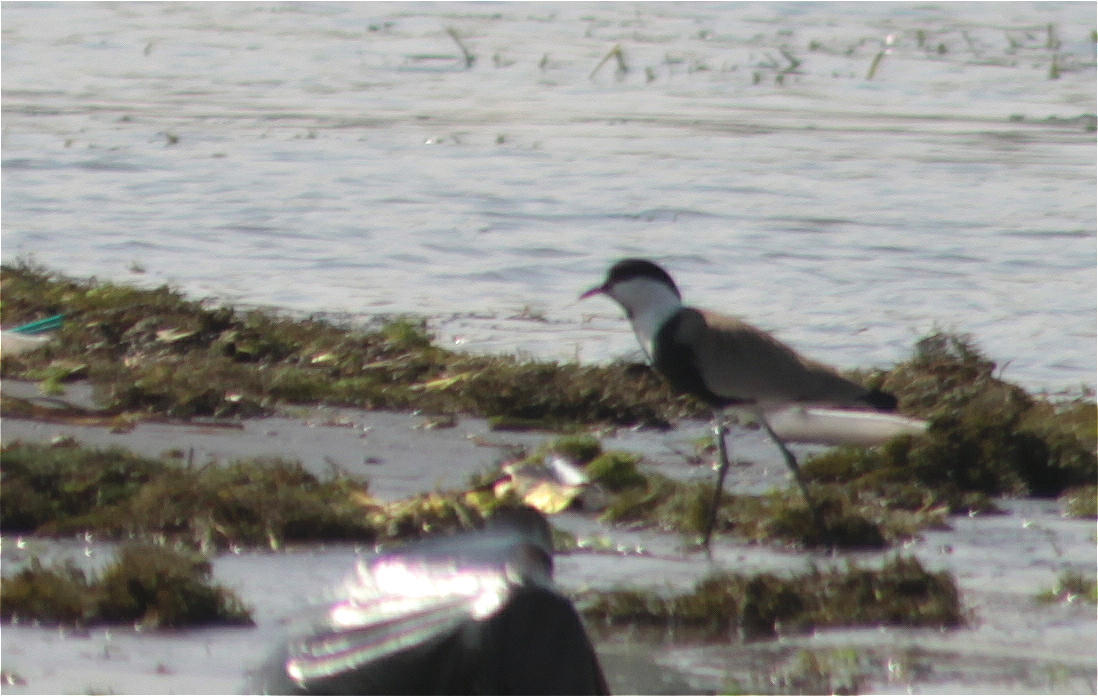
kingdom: Animalia
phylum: Chordata
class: Aves
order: Charadriiformes
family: Charadriidae
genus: Vanellus
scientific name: Vanellus spinosus
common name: Spur-winged lapwing
